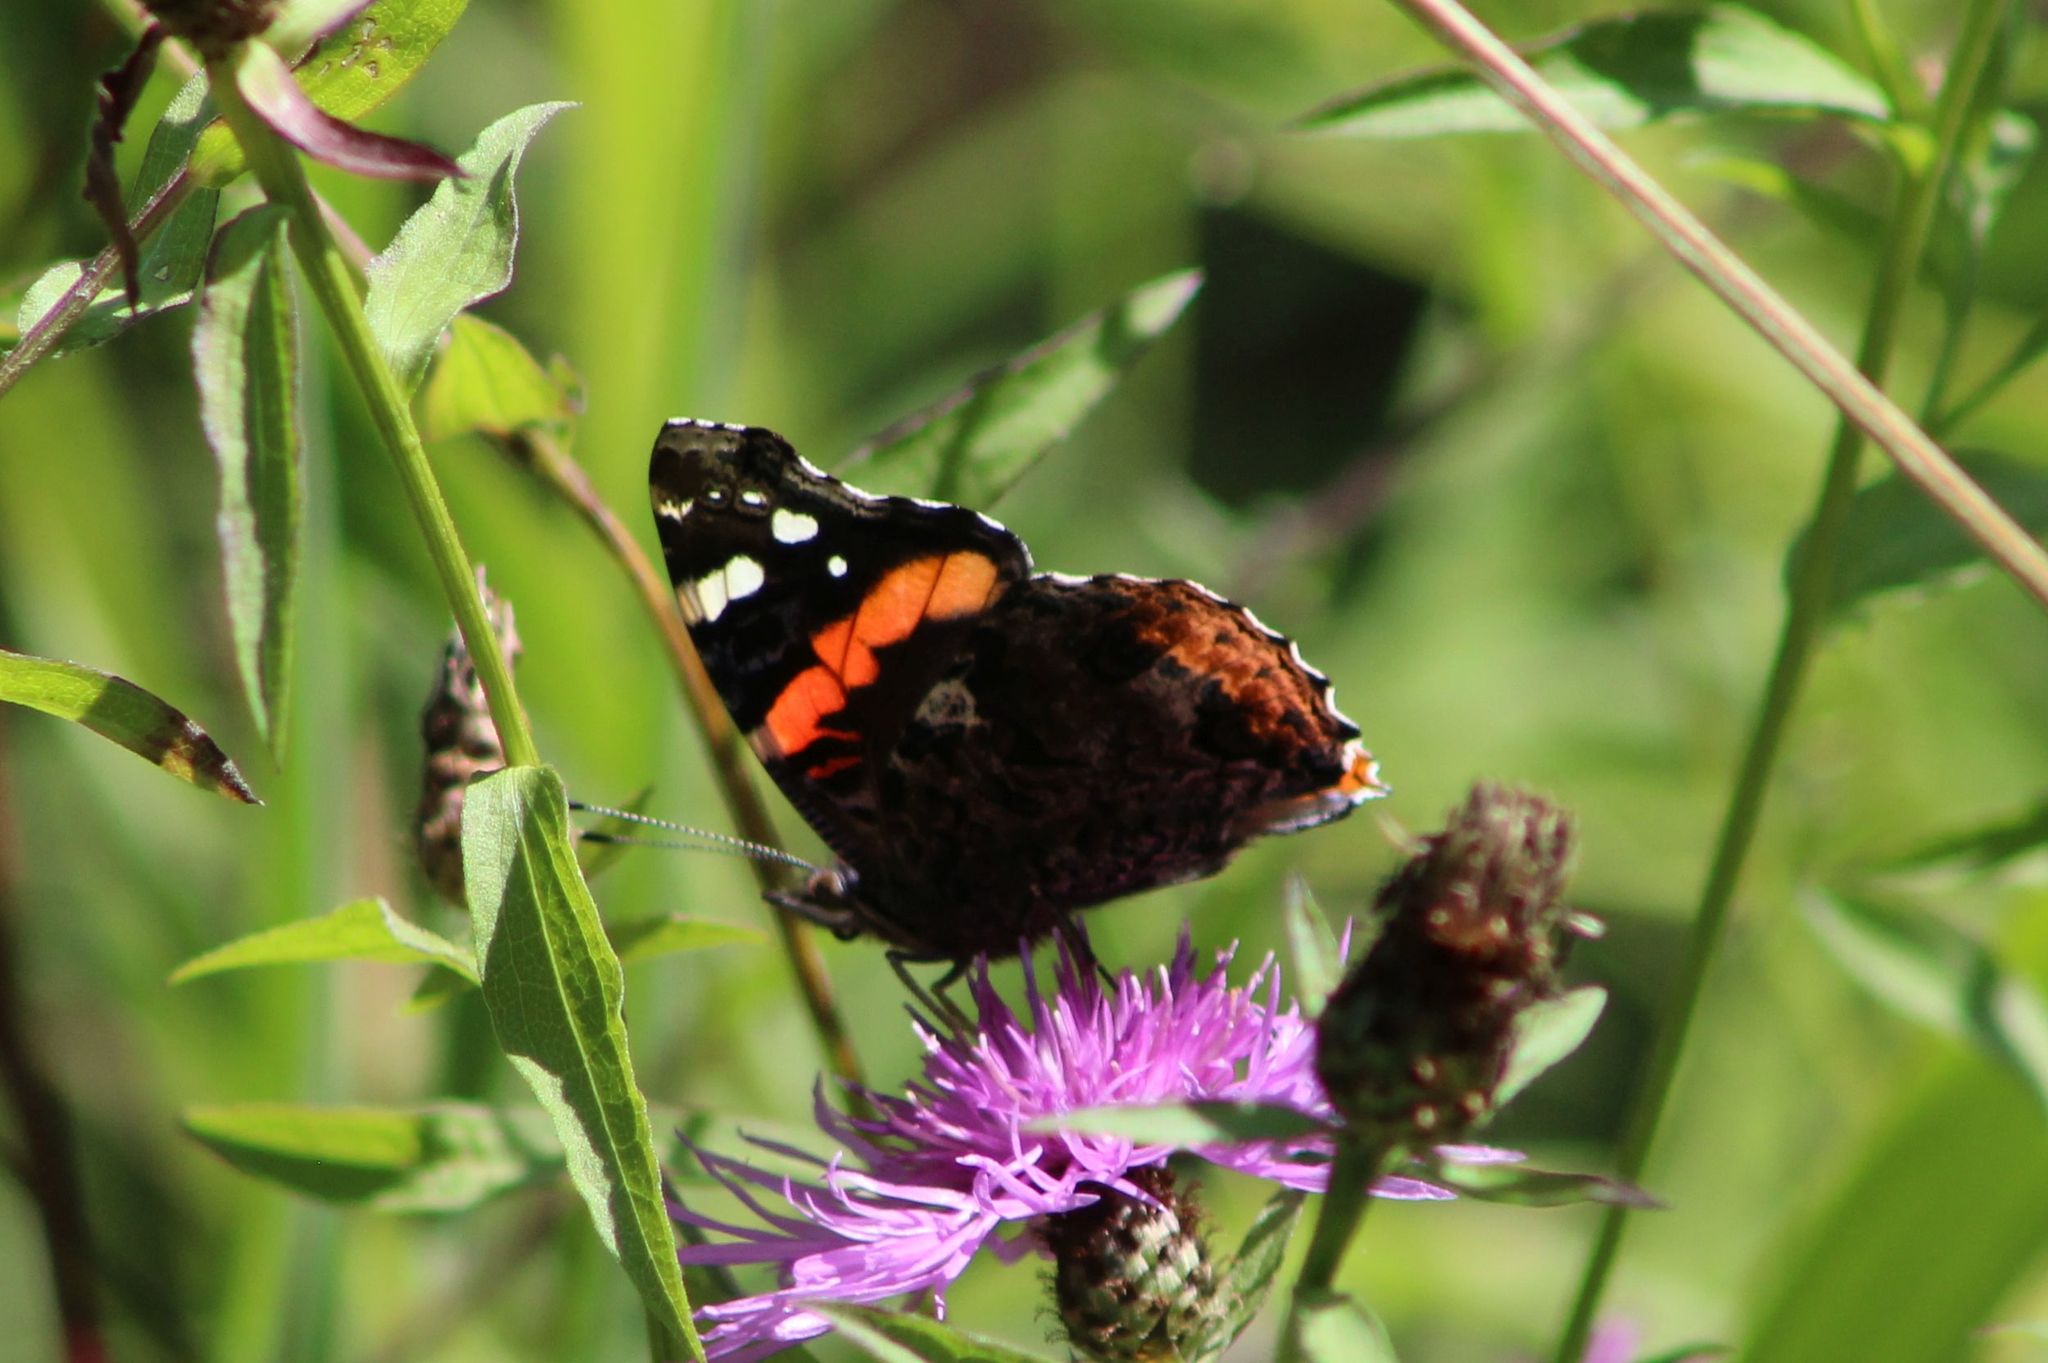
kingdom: Animalia
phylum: Arthropoda
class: Insecta
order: Lepidoptera
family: Nymphalidae
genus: Vanessa
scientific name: Vanessa atalanta
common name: Red admiral
